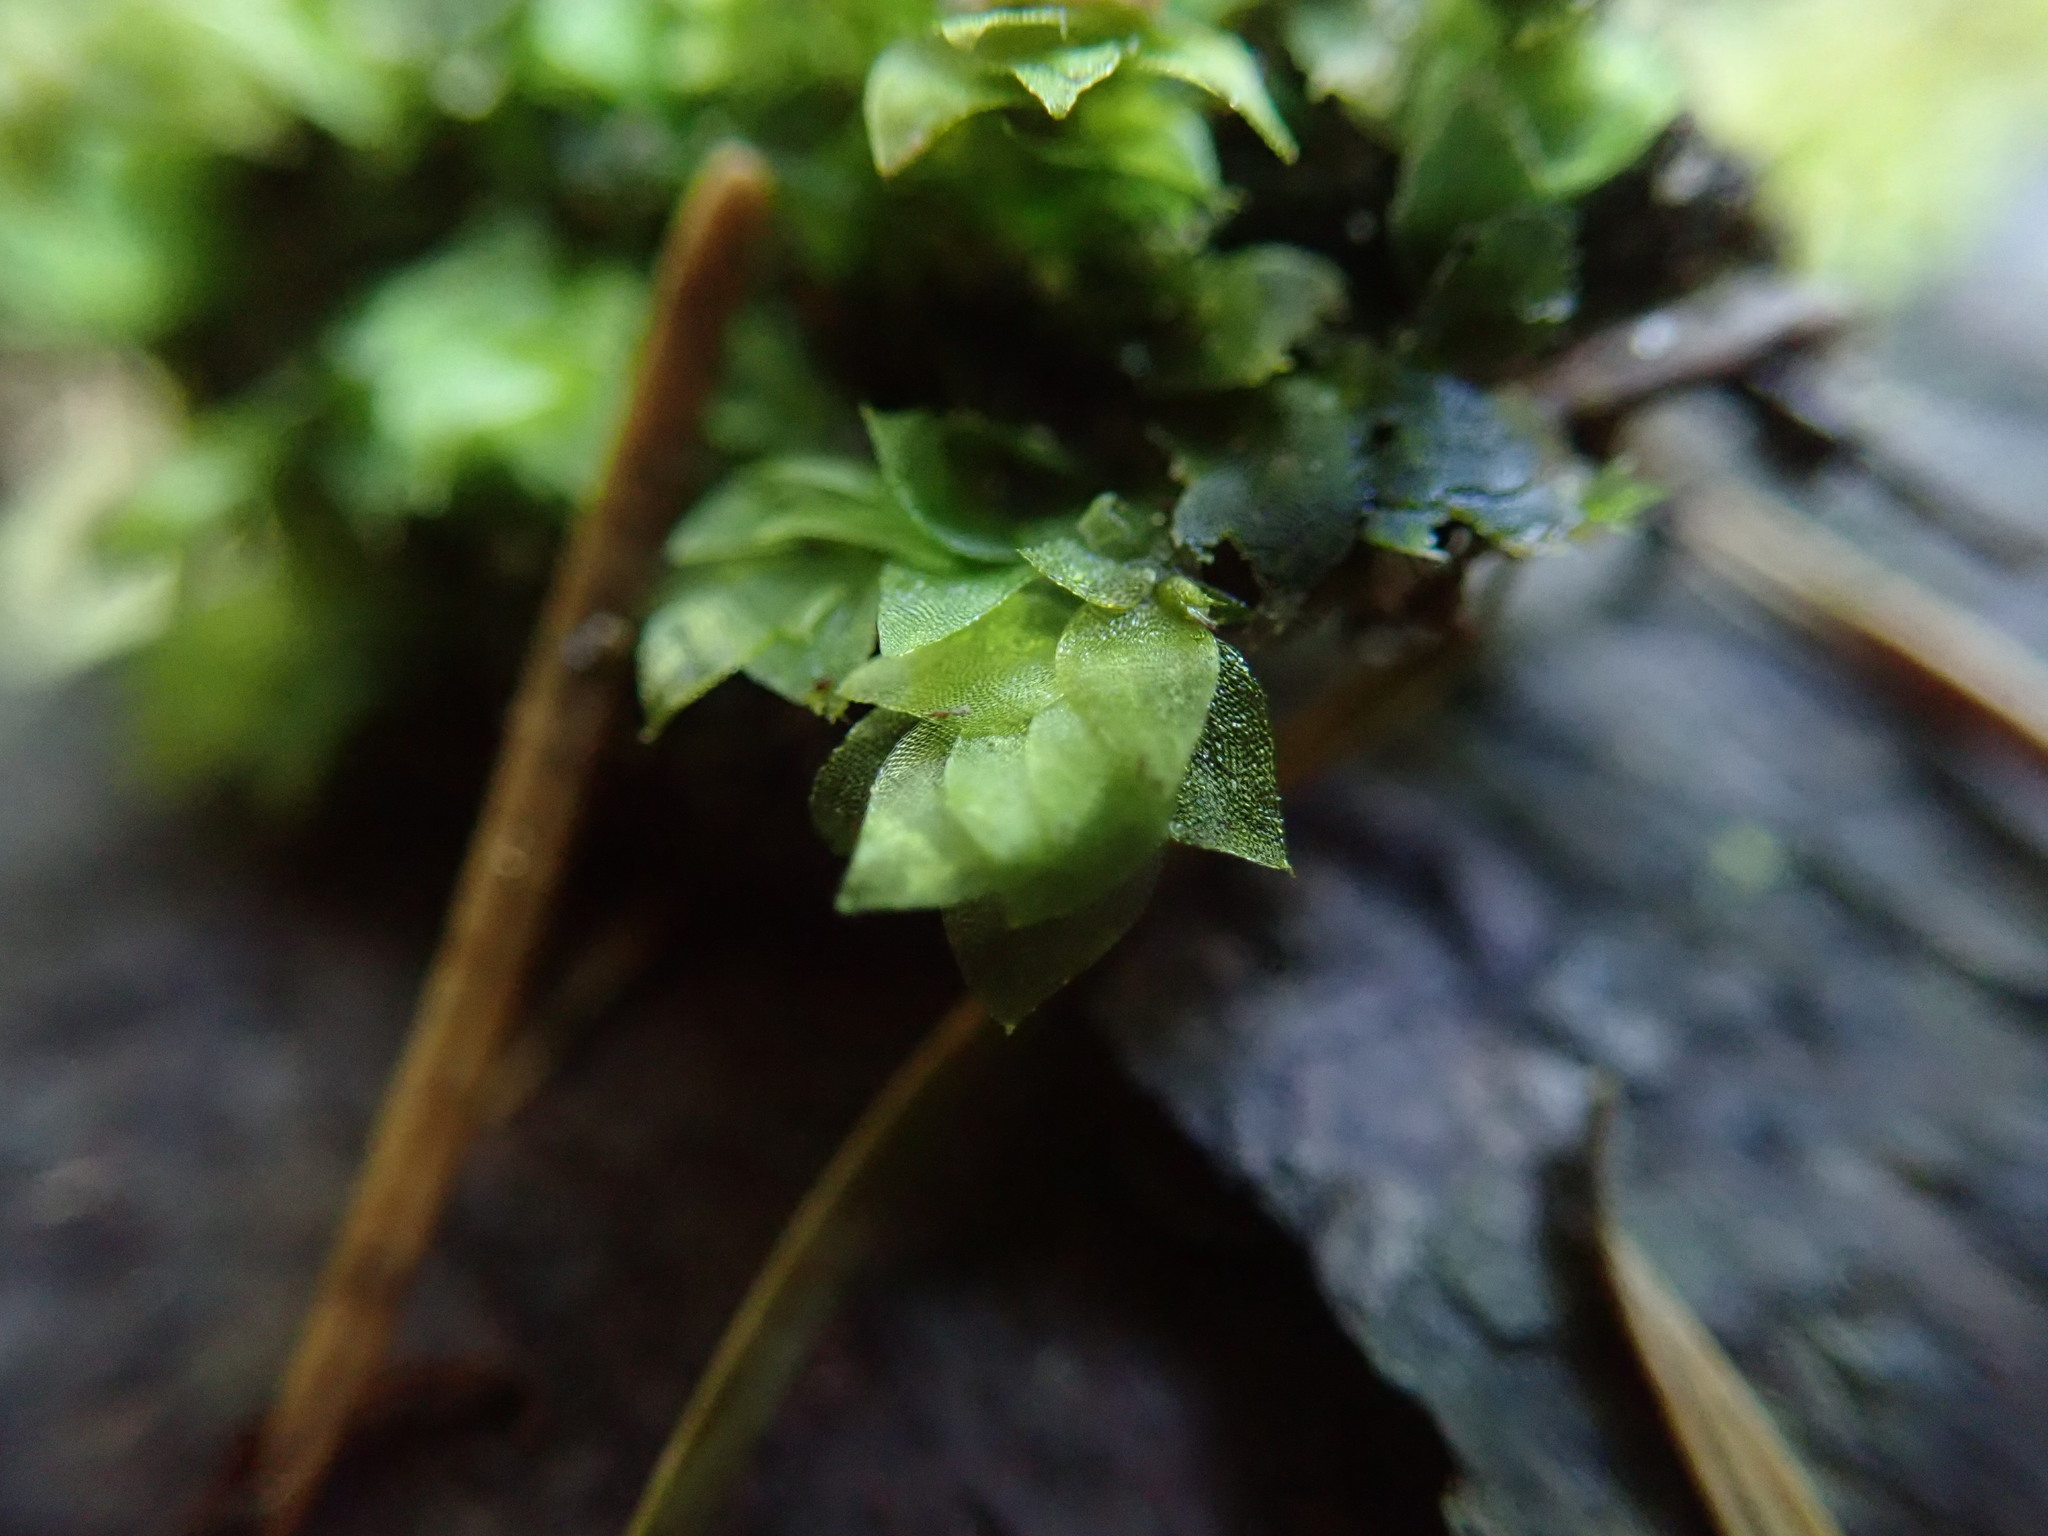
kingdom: Plantae
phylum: Bryophyta
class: Bryopsida
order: Hookeriales
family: Hookeriaceae
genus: Hookeria
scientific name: Hookeria acutifolia
